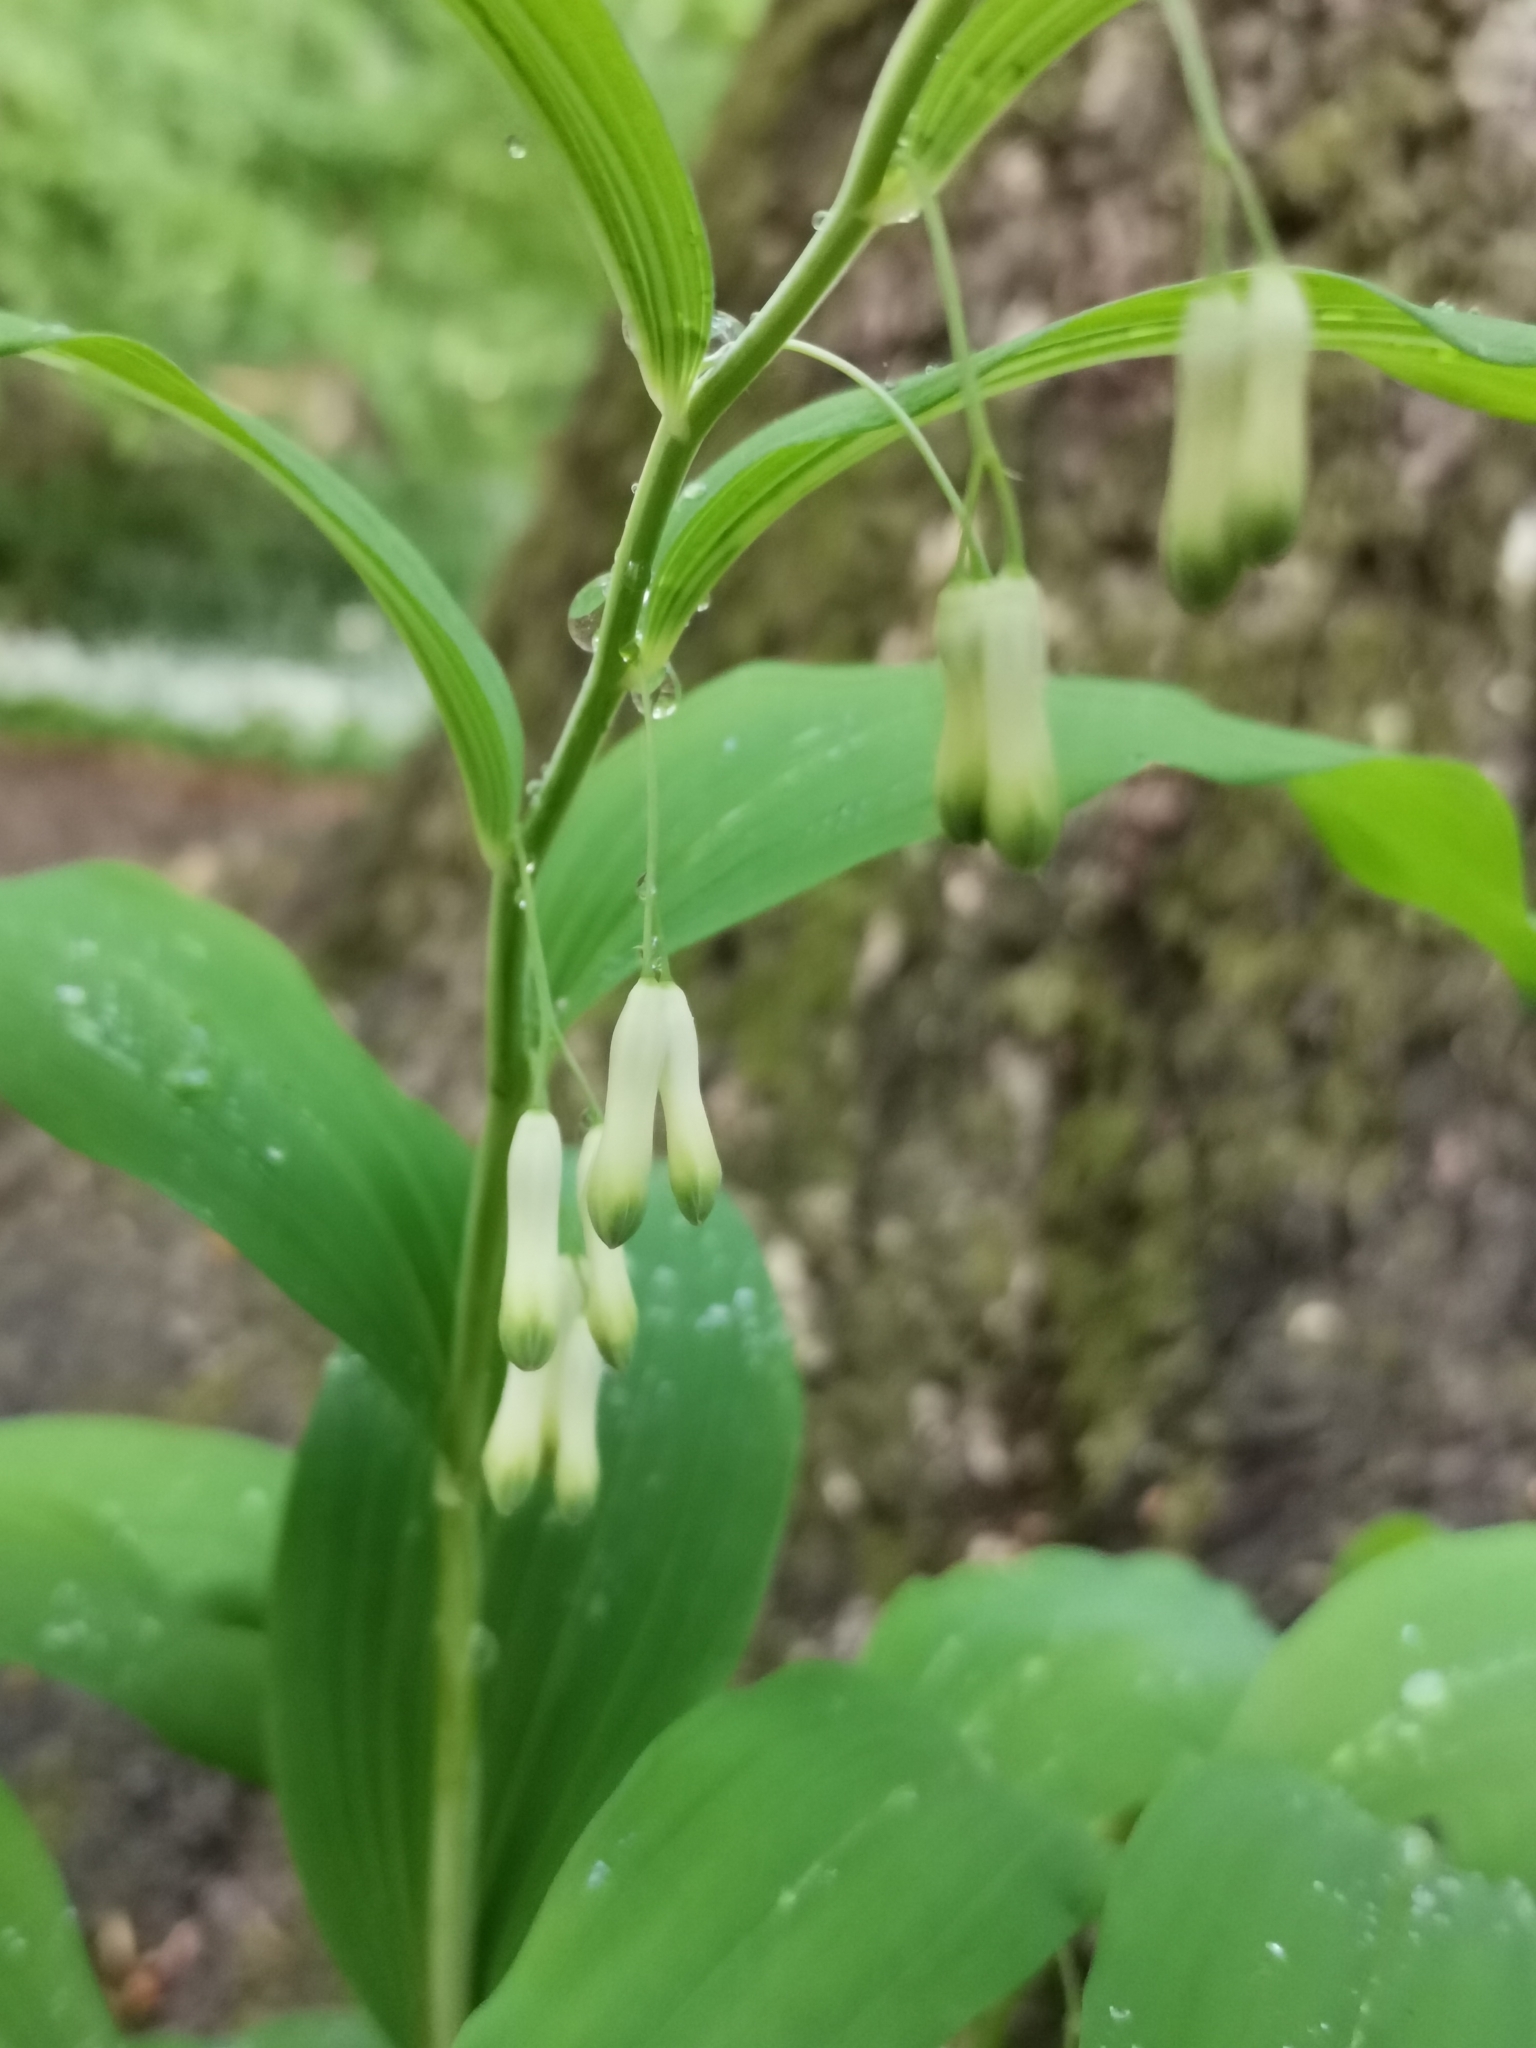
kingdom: Plantae
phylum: Tracheophyta
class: Liliopsida
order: Asparagales
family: Asparagaceae
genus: Polygonatum
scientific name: Polygonatum multiflorum
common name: Solomon's-seal
